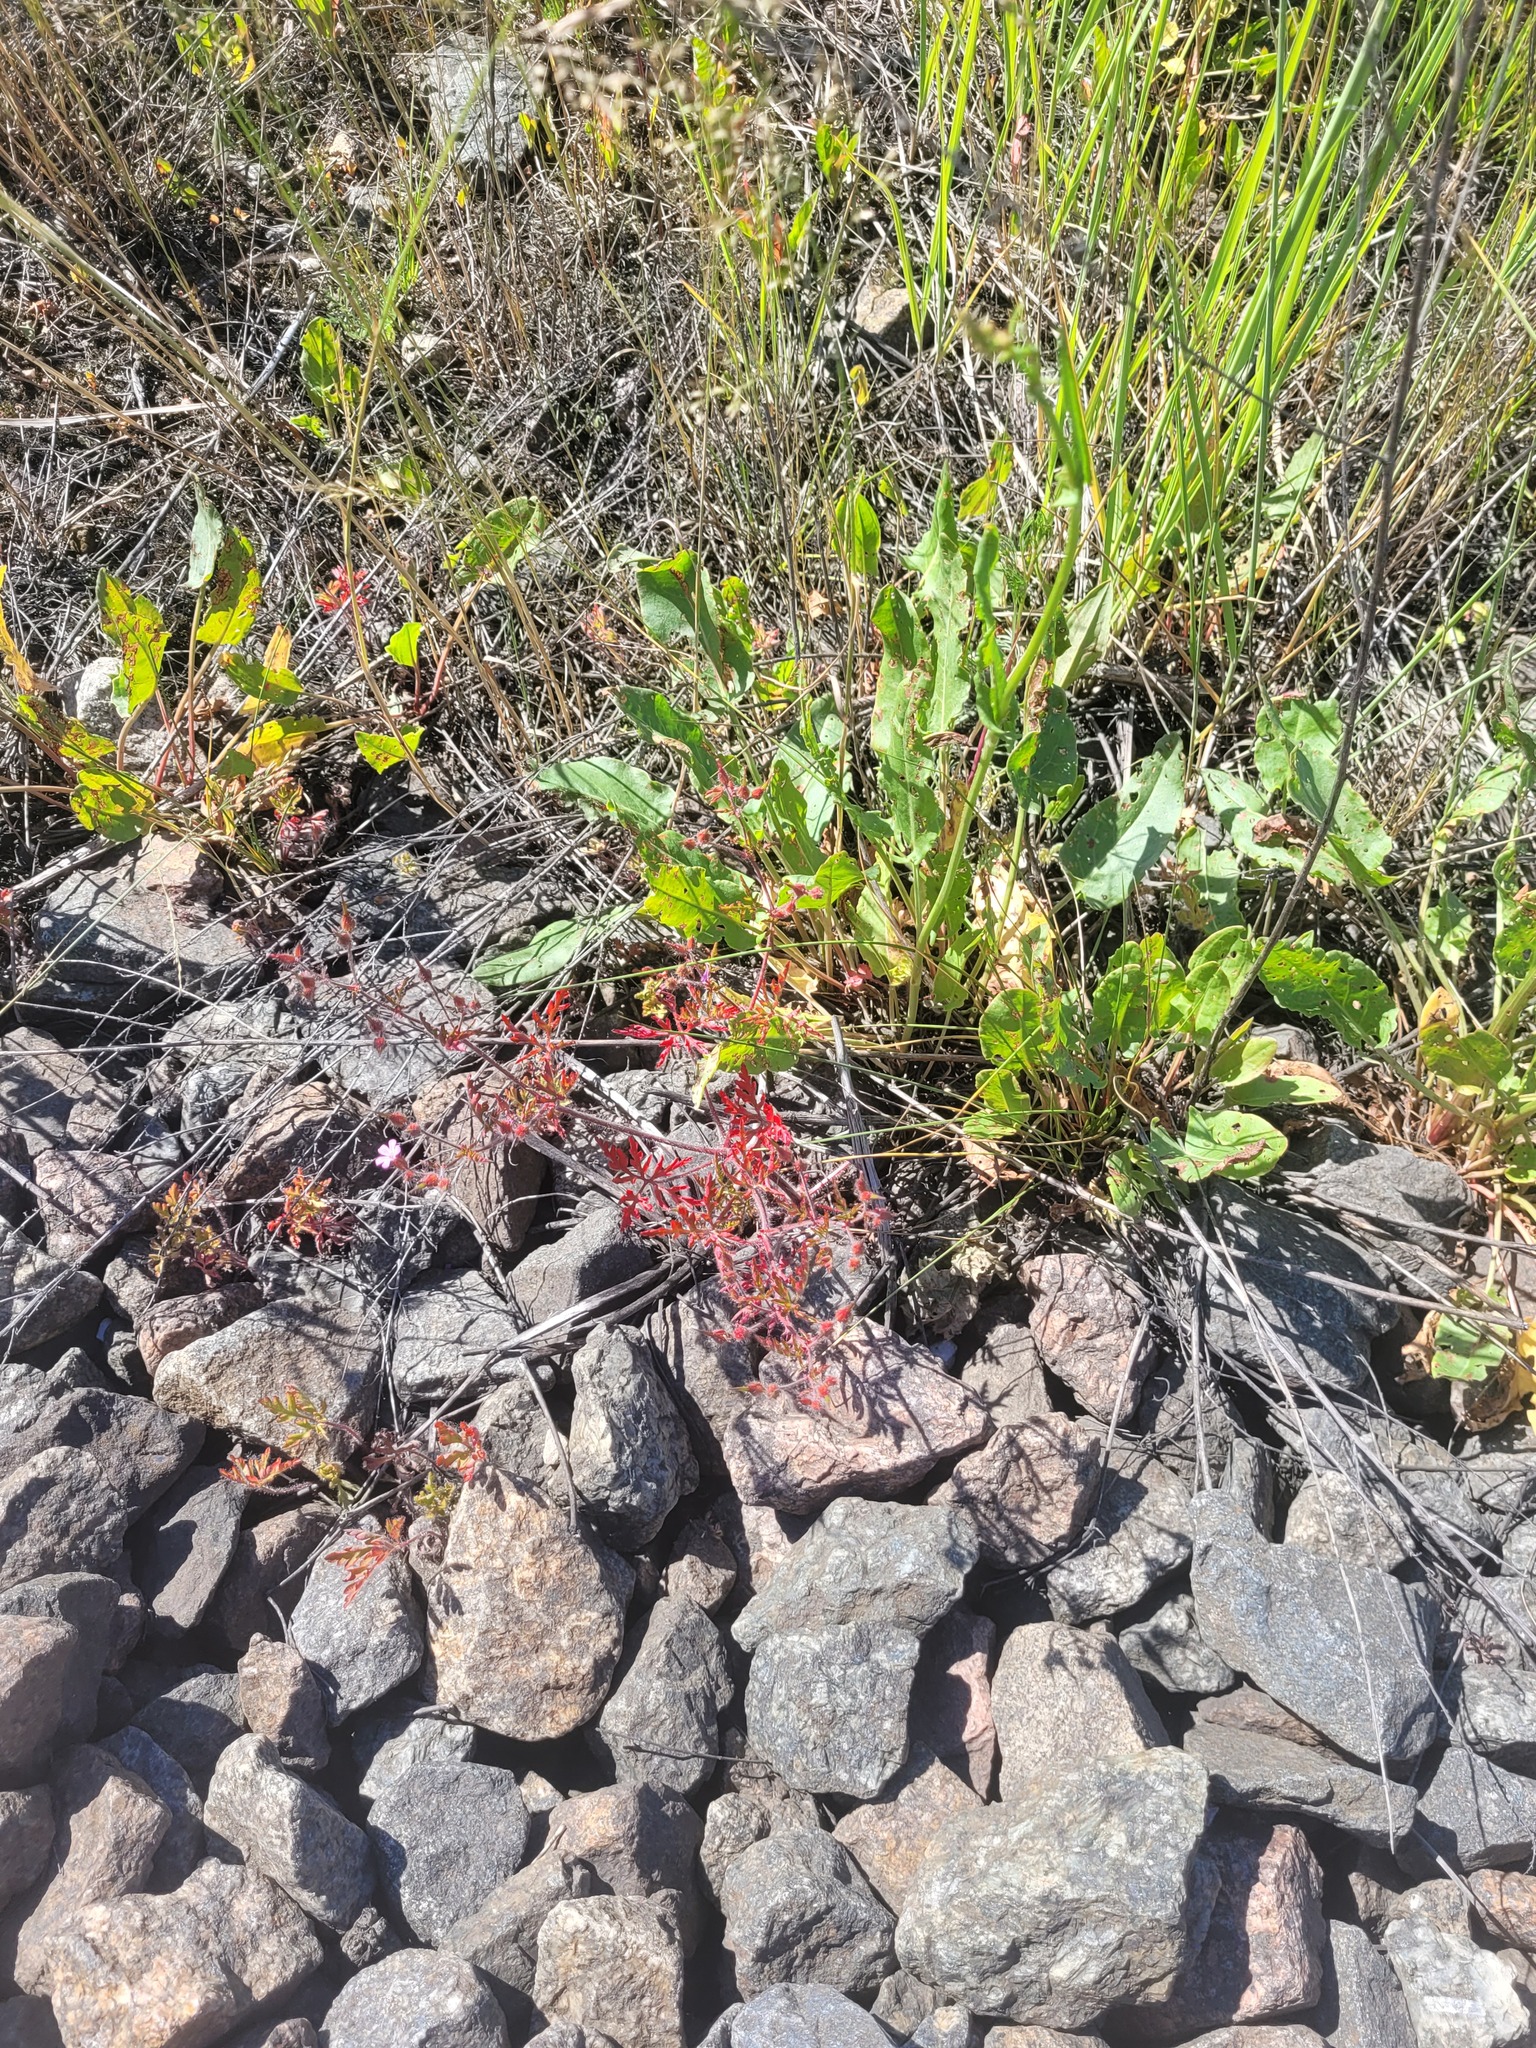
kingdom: Plantae
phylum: Tracheophyta
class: Magnoliopsida
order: Geraniales
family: Geraniaceae
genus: Geranium
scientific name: Geranium robertianum
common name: Herb-robert
